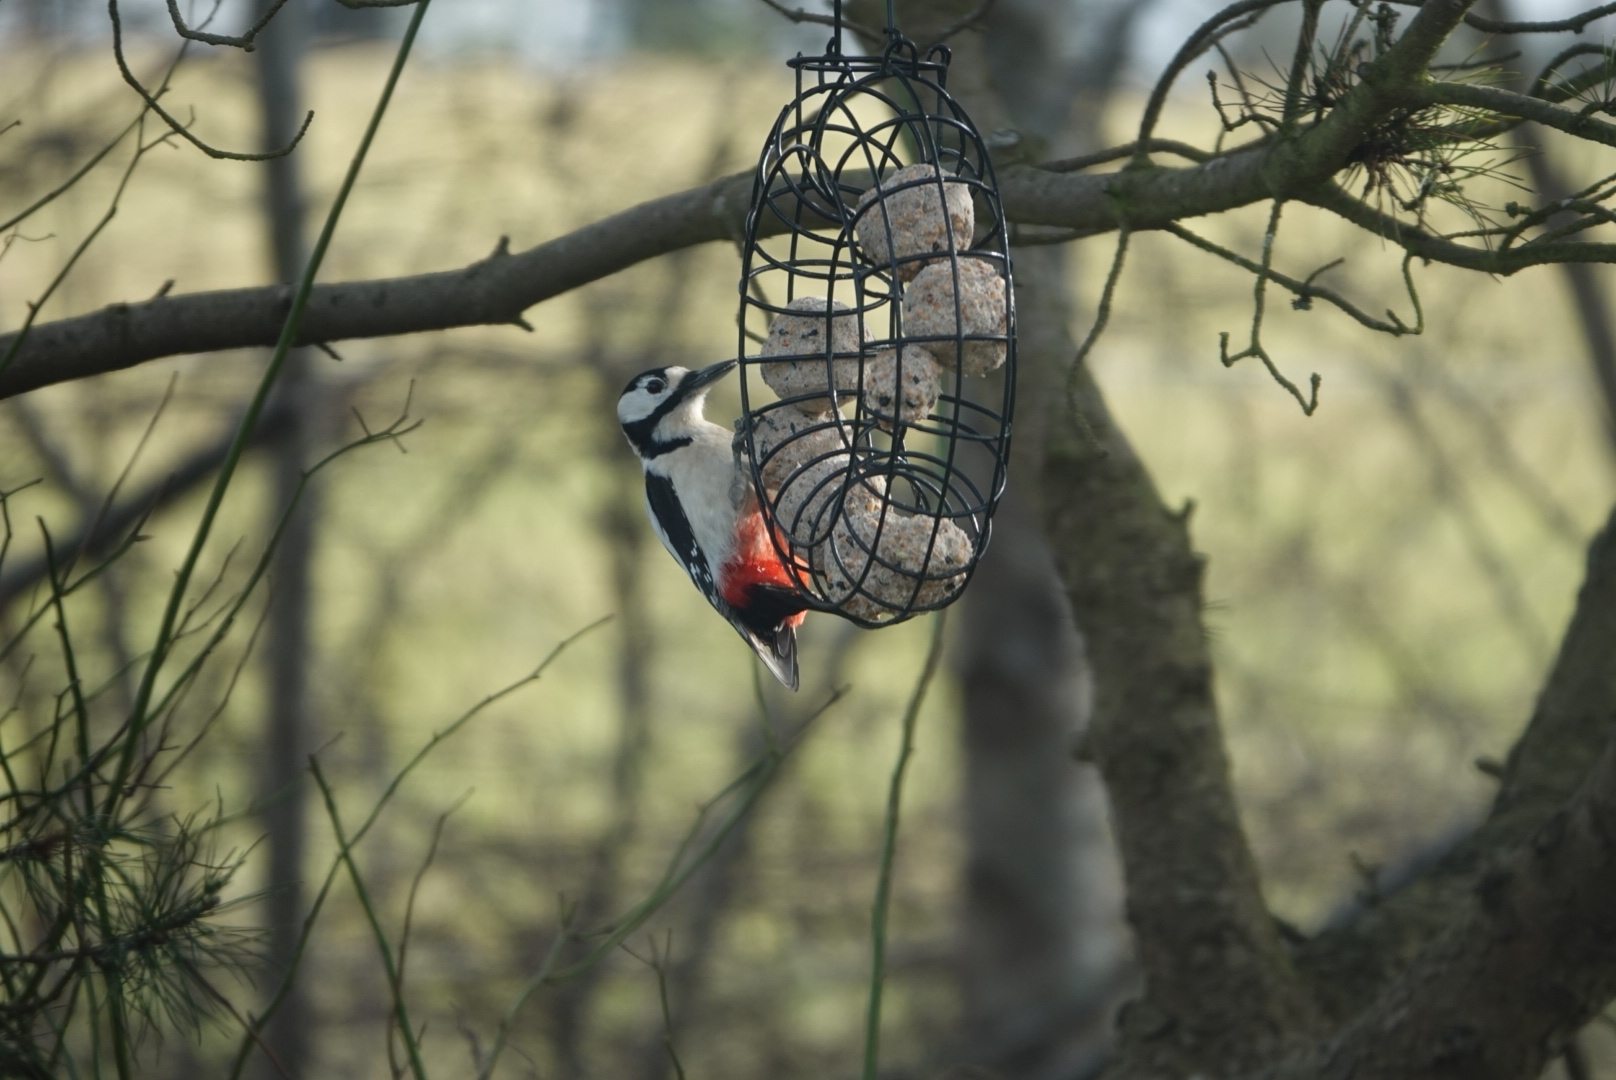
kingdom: Animalia
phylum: Chordata
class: Aves
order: Piciformes
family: Picidae
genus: Dendrocopos
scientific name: Dendrocopos major
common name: Great spotted woodpecker
